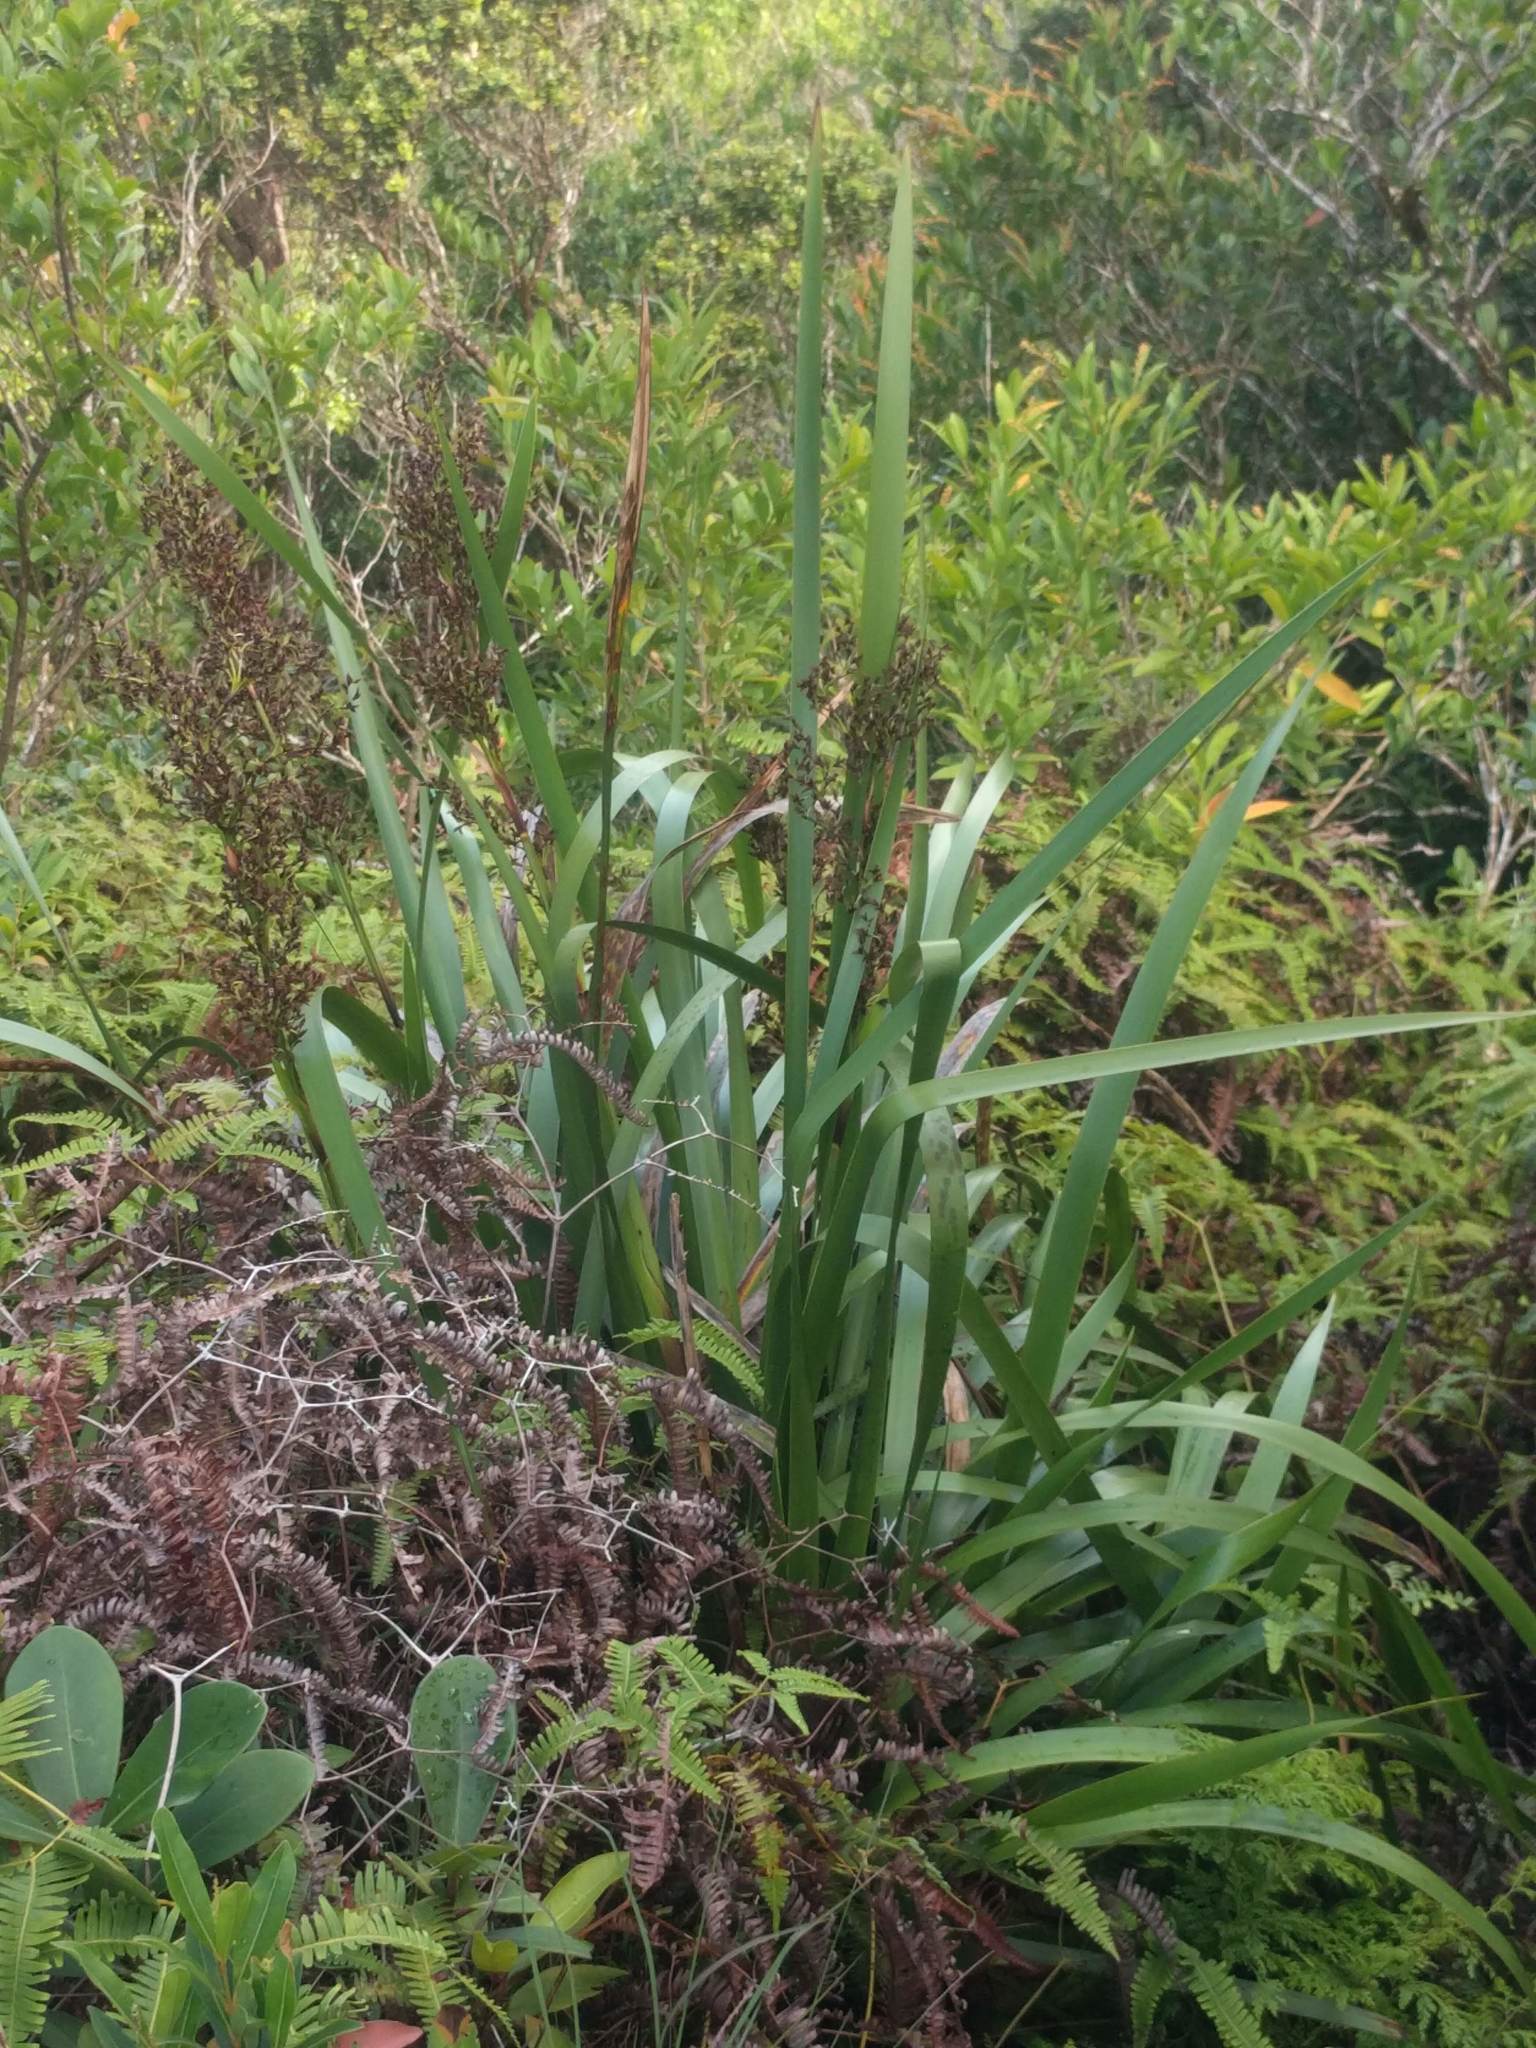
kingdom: Plantae
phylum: Tracheophyta
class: Liliopsida
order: Poales
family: Cyperaceae
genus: Machaerina
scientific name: Machaerina angustifolia
